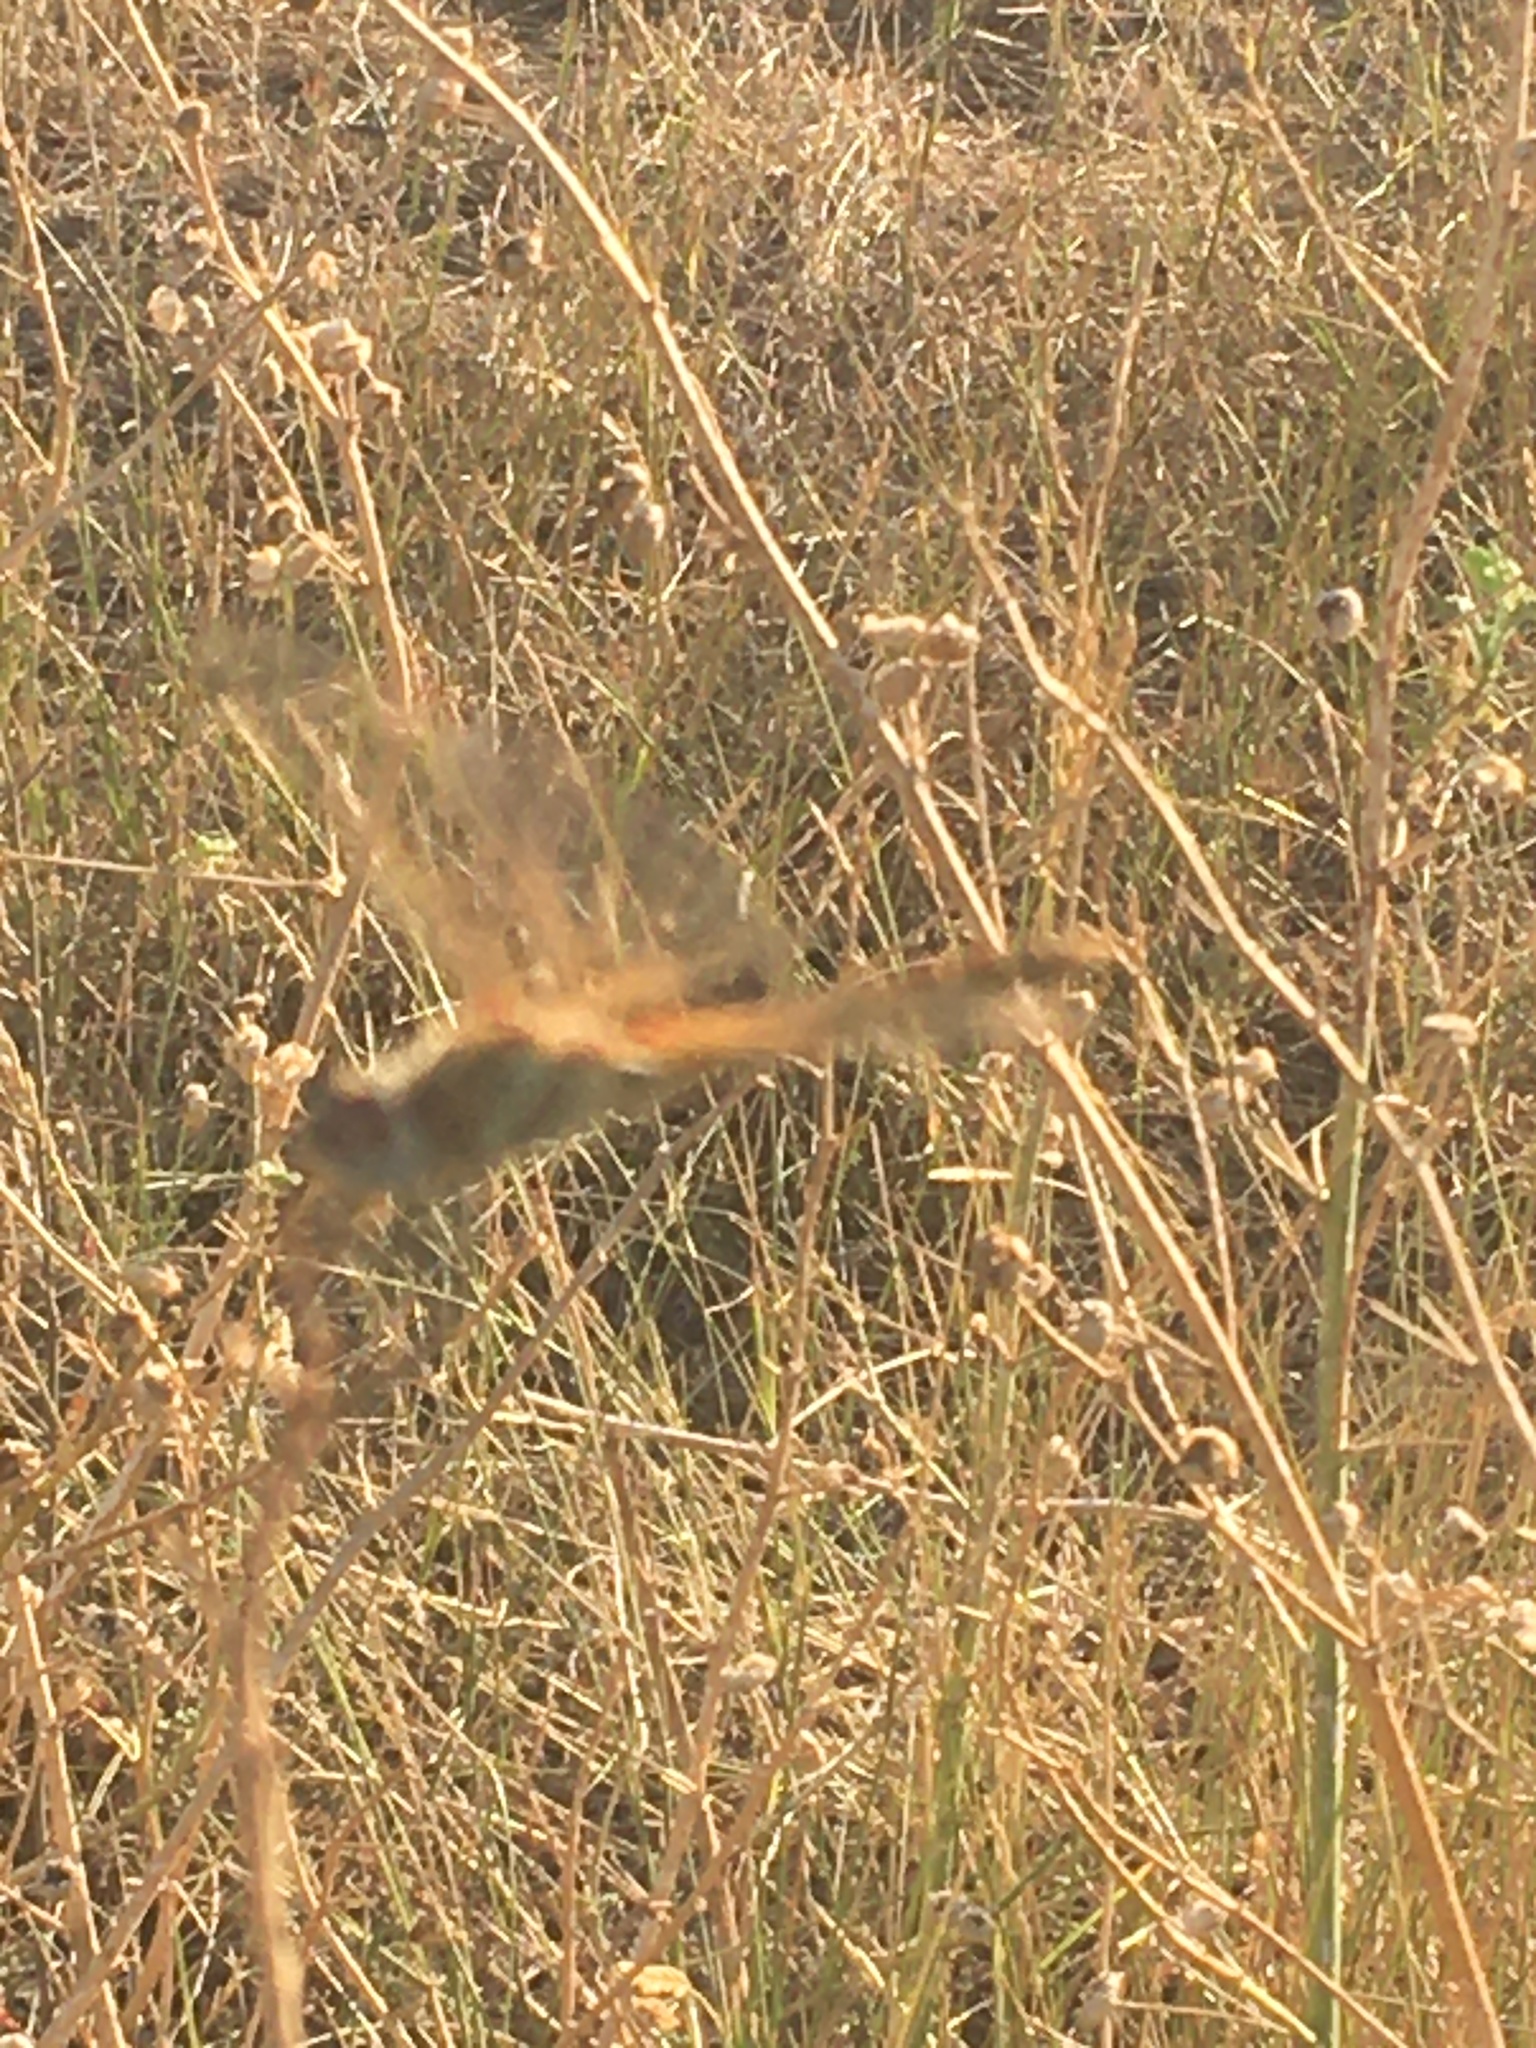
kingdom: Animalia
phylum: Arthropoda
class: Insecta
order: Odonata
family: Libellulidae
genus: Sympetrum
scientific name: Sympetrum fonscolombii
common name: Red-veined darter
